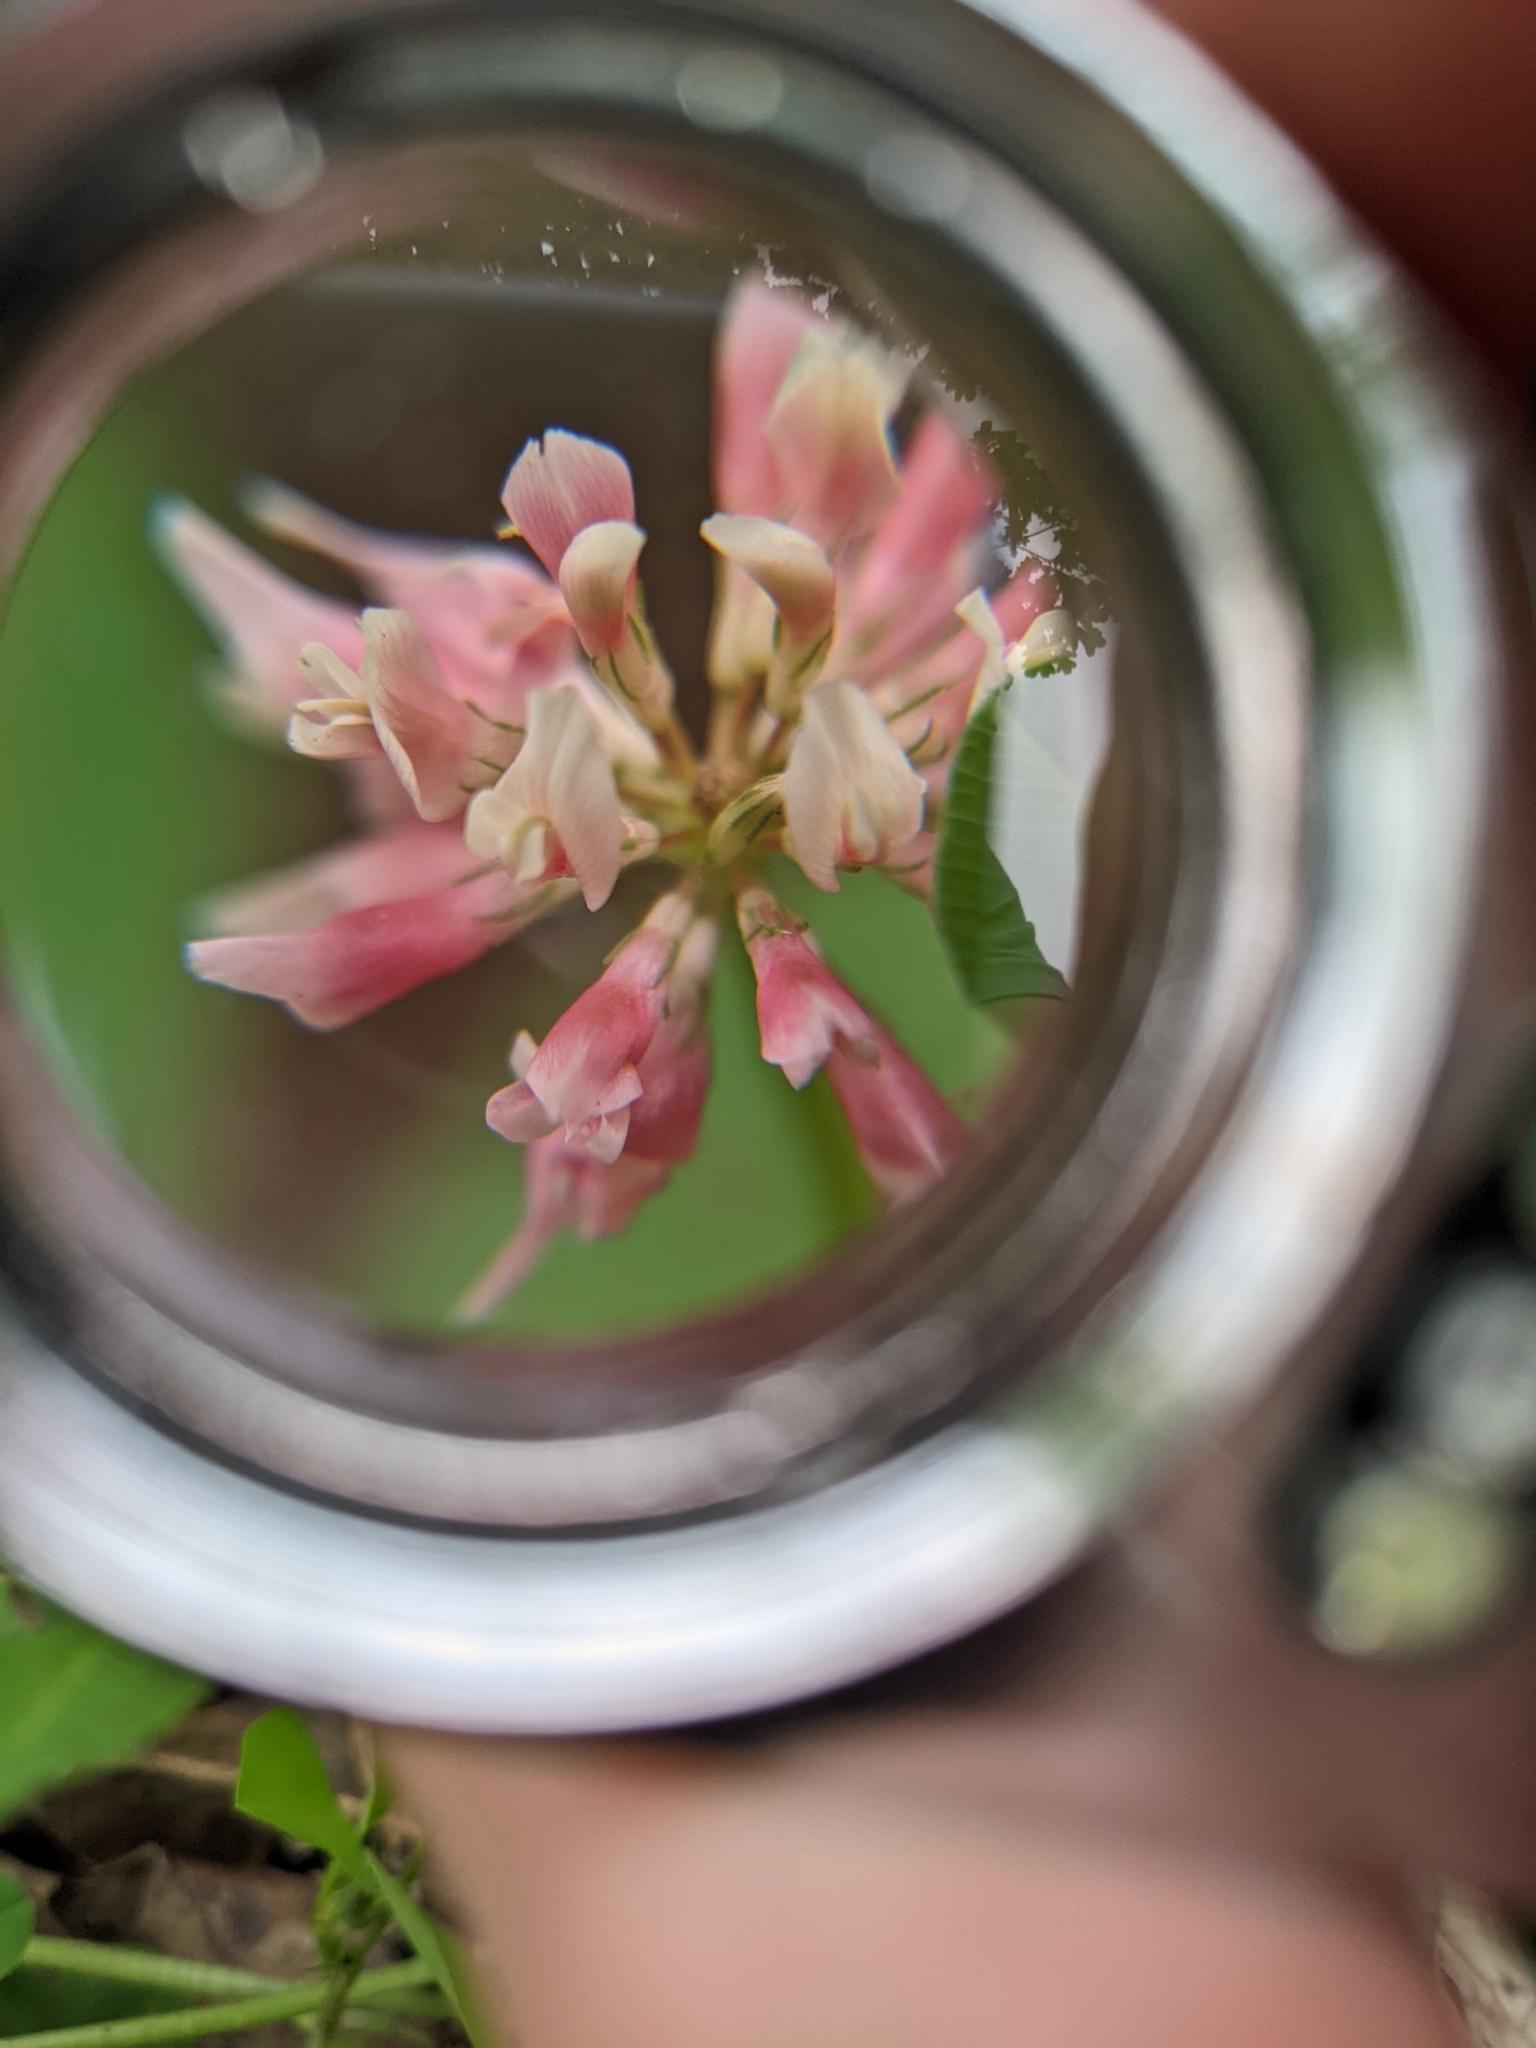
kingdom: Plantae
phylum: Tracheophyta
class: Magnoliopsida
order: Fabales
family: Fabaceae
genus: Trifolium
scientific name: Trifolium hybridum
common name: Alsike clover
